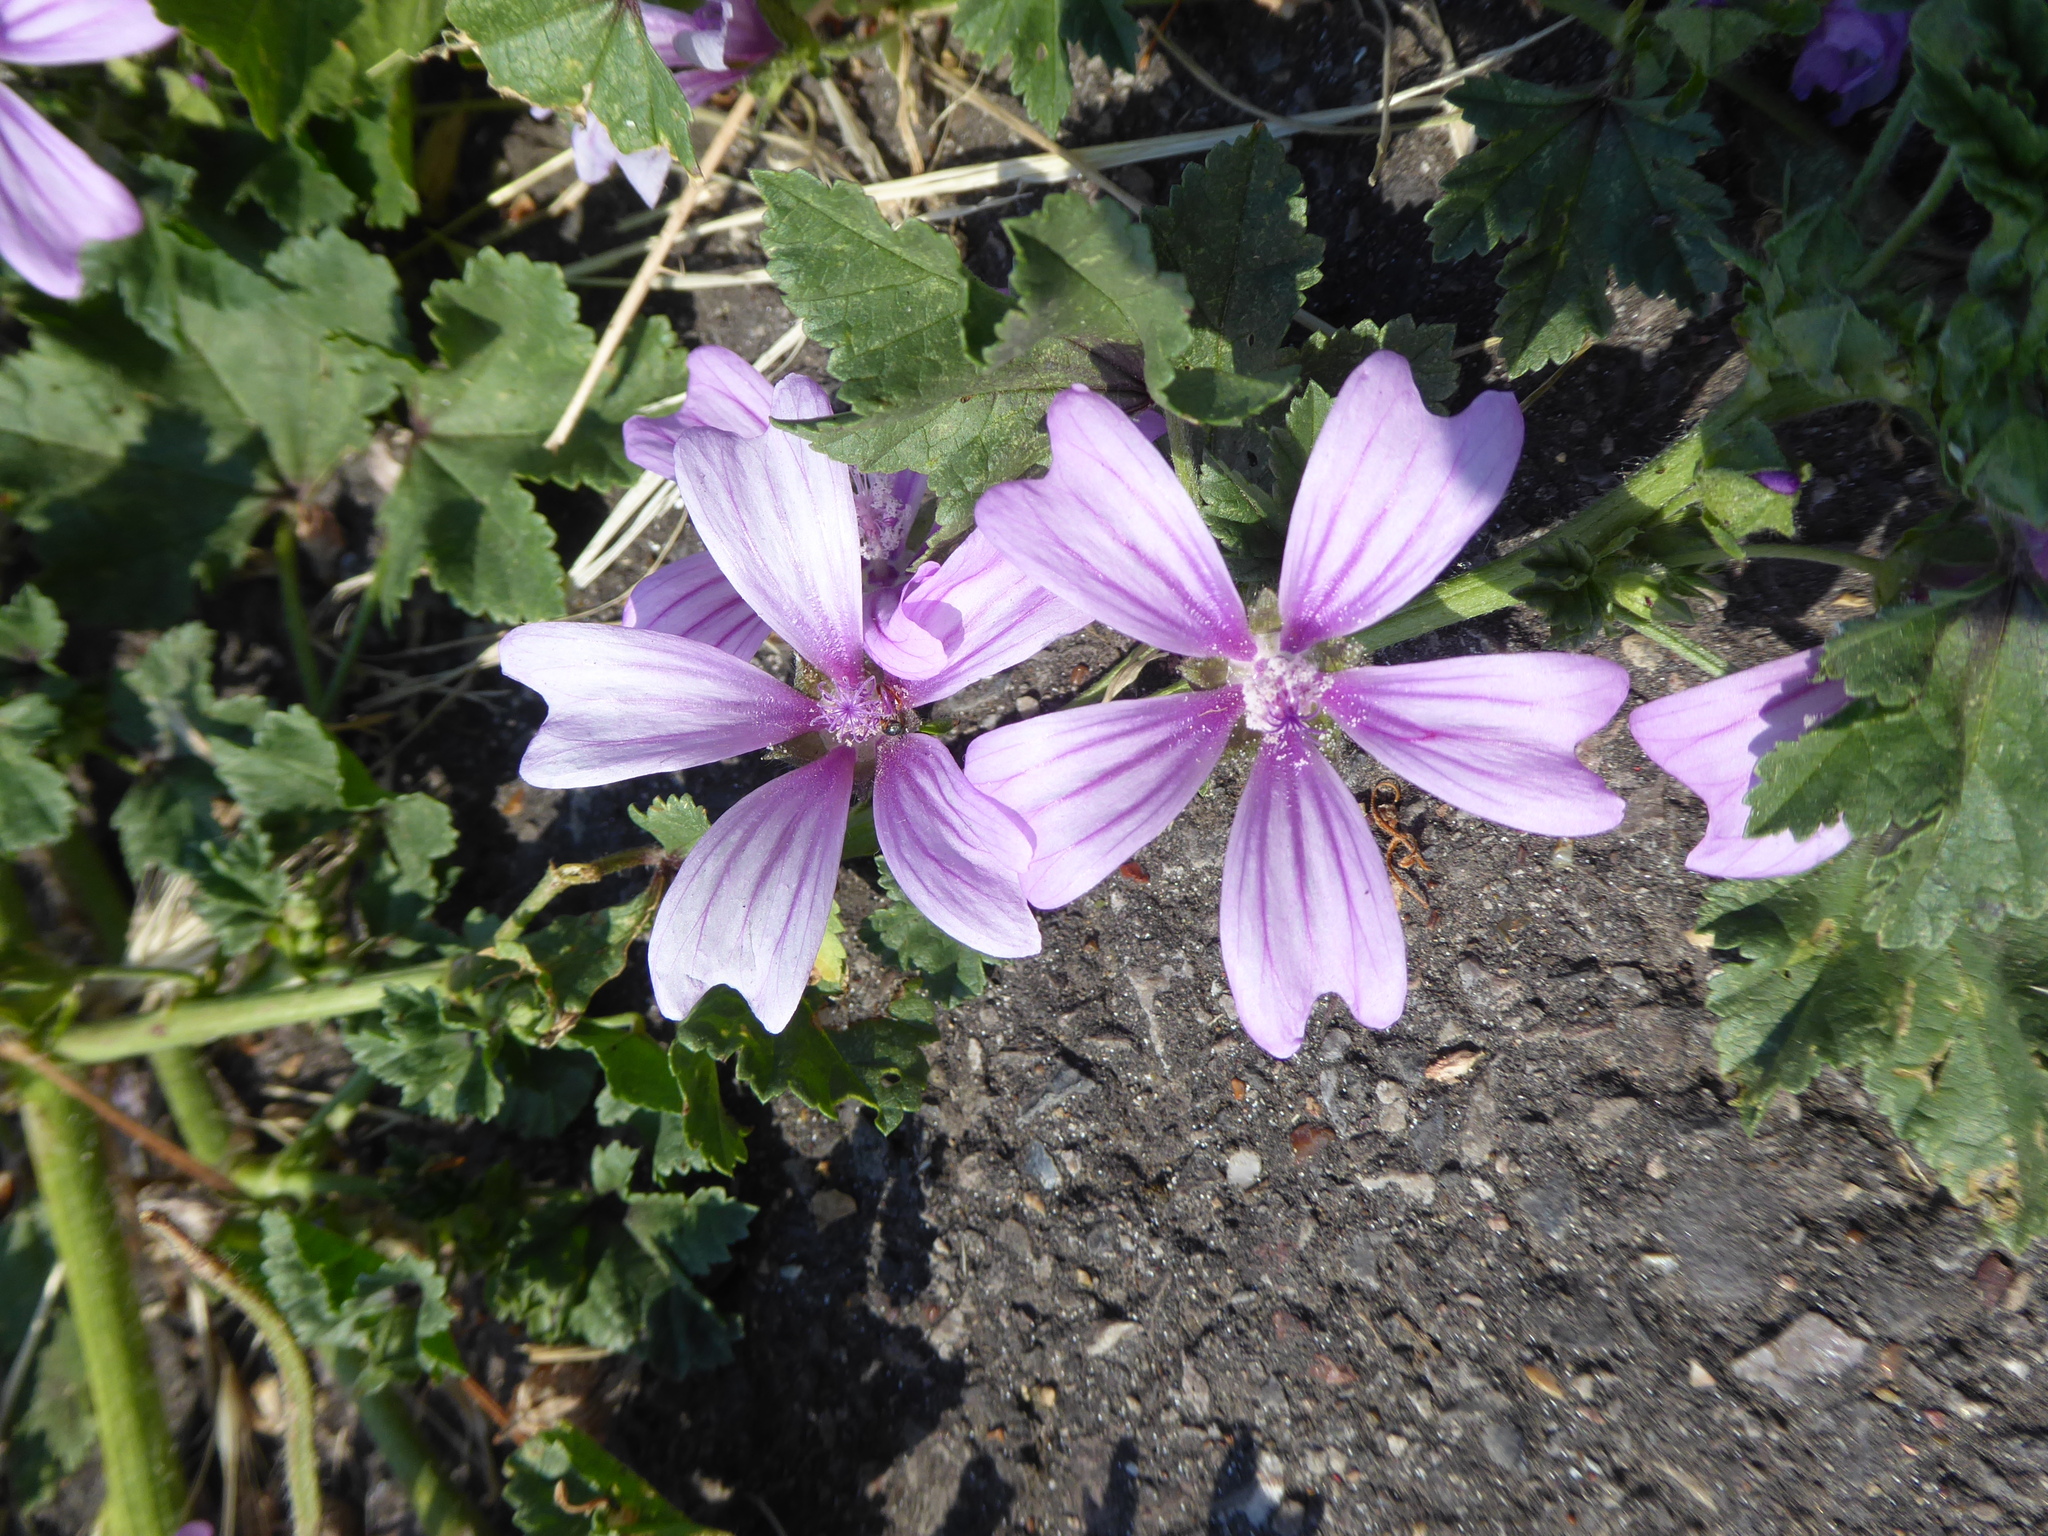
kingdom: Plantae
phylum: Tracheophyta
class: Magnoliopsida
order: Malvales
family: Malvaceae
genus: Malva
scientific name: Malva sylvestris
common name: Common mallow
